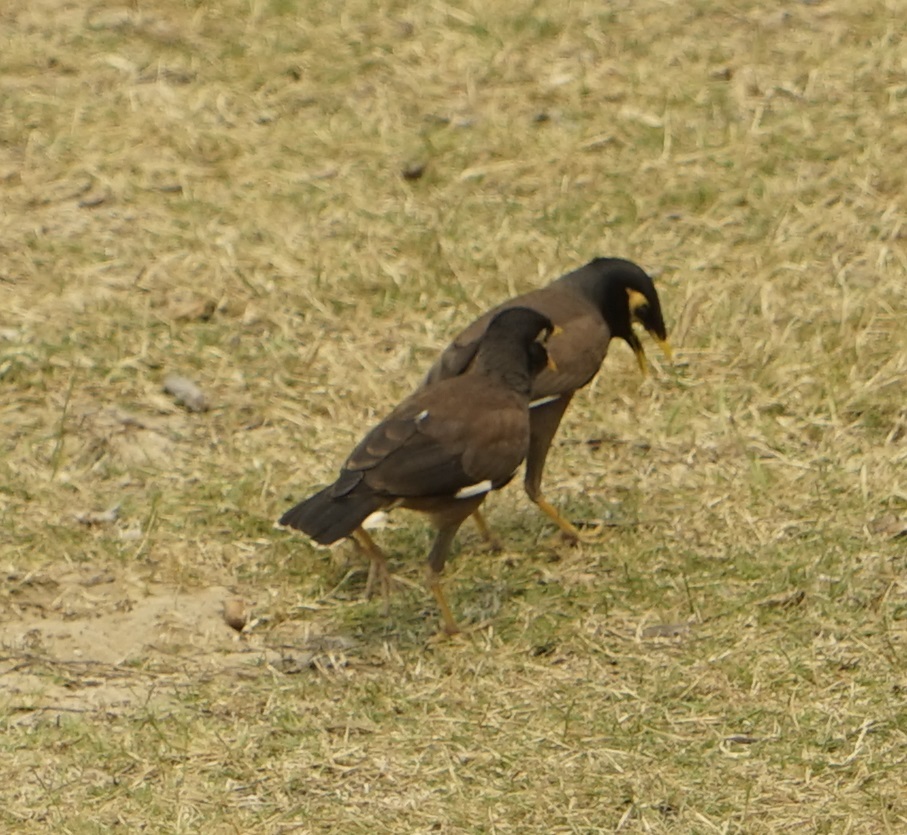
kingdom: Animalia
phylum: Chordata
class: Aves
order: Passeriformes
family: Sturnidae
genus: Acridotheres
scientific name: Acridotheres tristis
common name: Common myna
